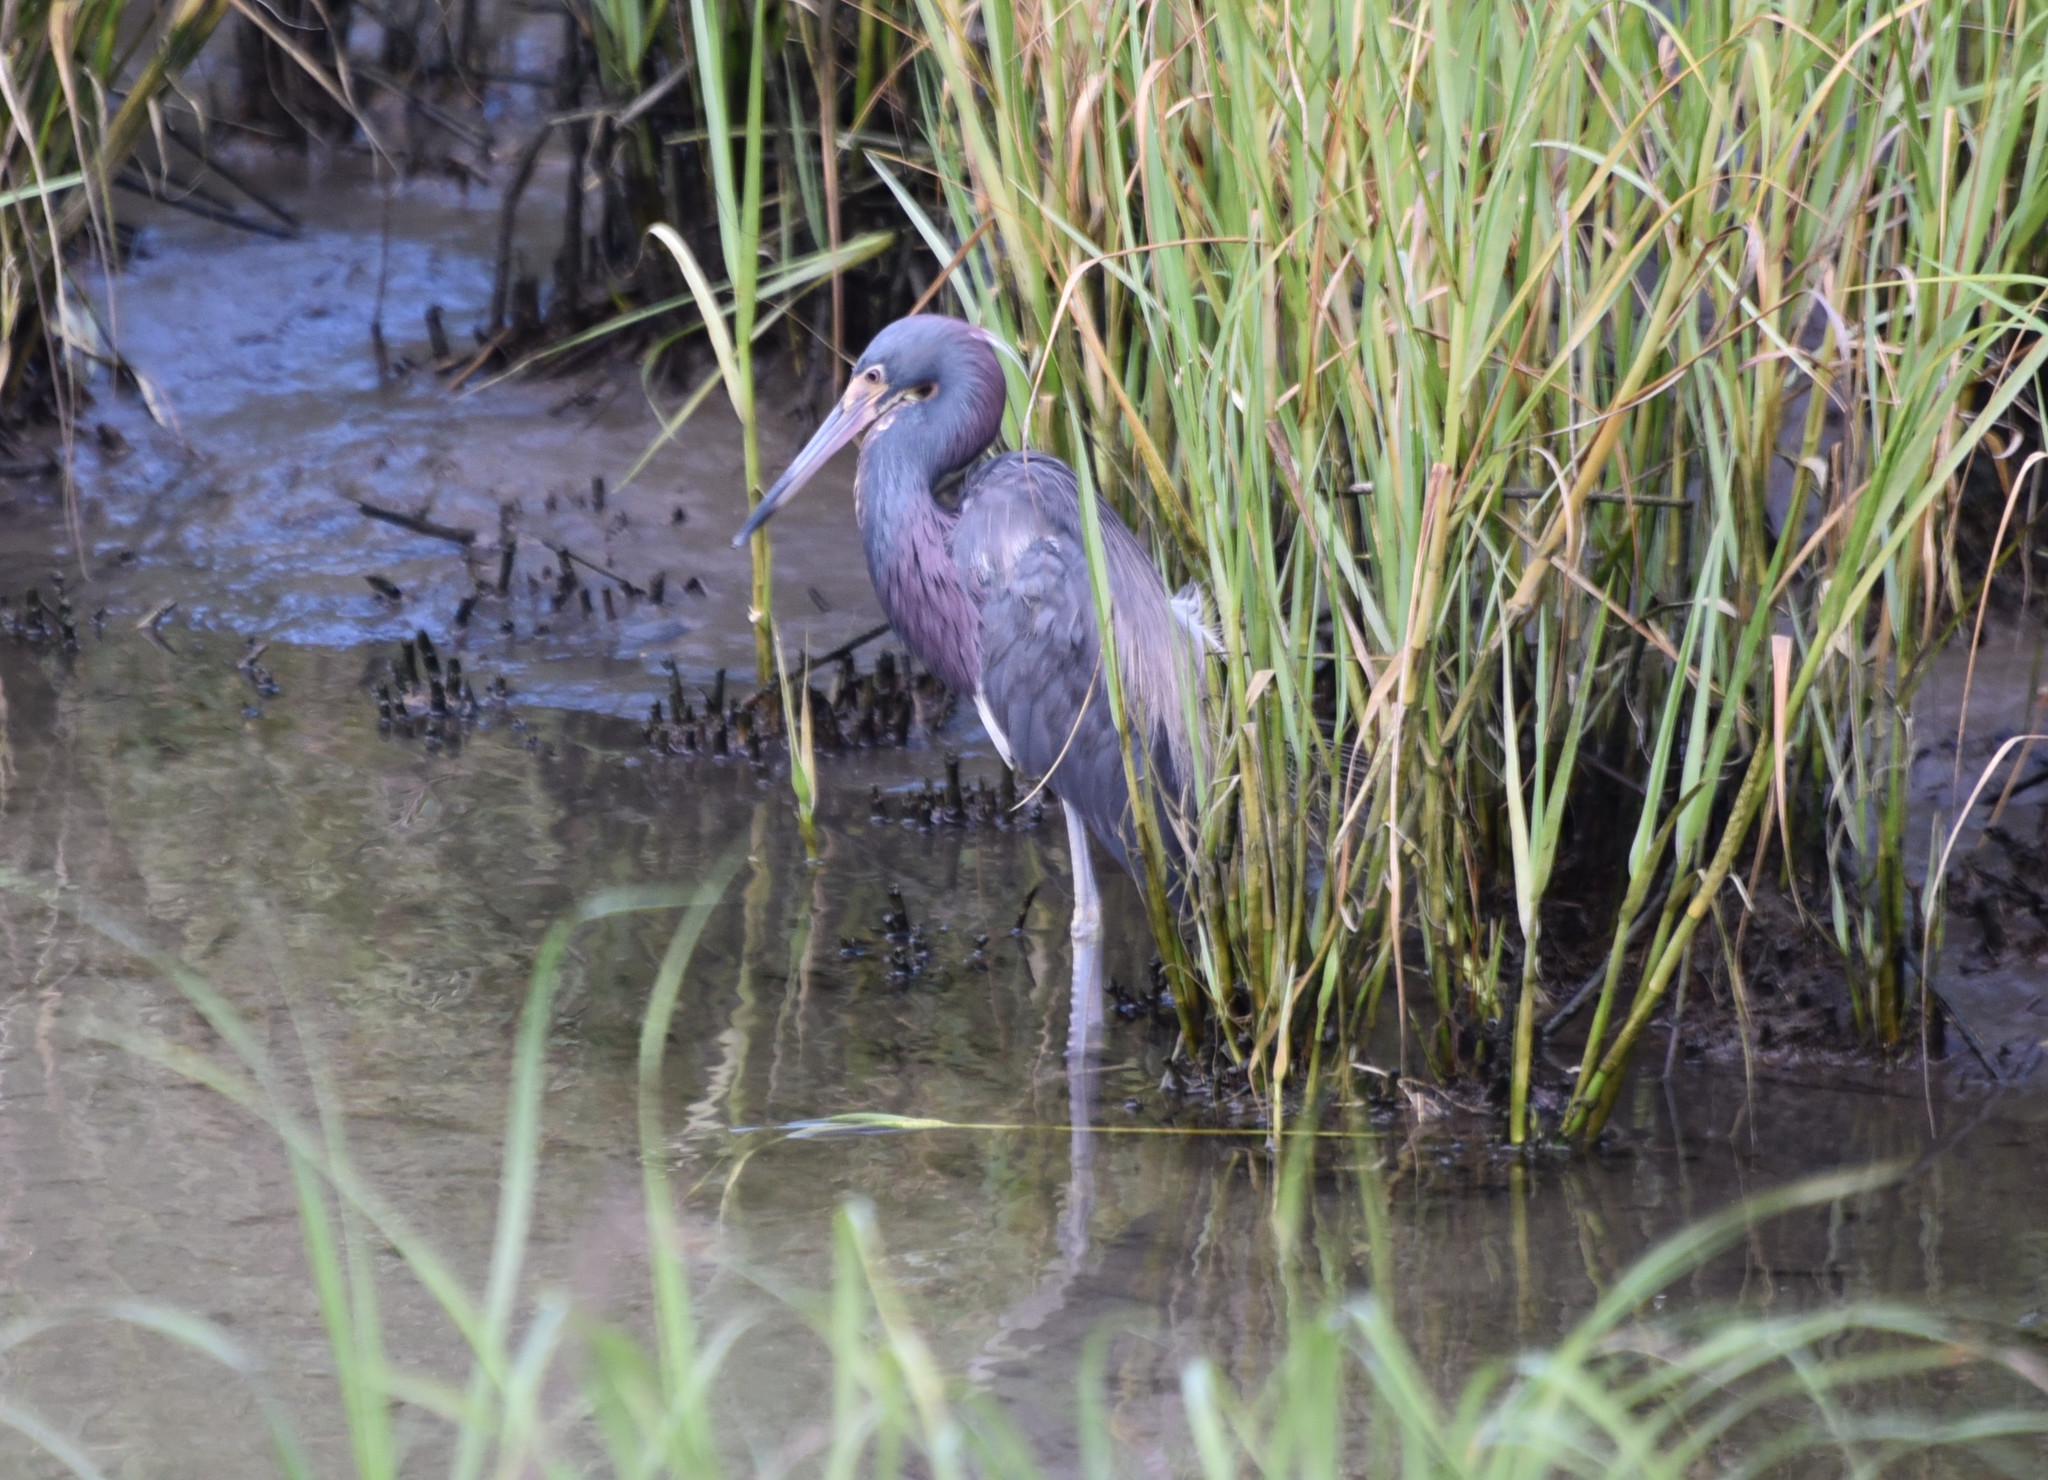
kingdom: Animalia
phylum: Chordata
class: Aves
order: Pelecaniformes
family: Ardeidae
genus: Egretta
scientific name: Egretta tricolor
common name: Tricolored heron
